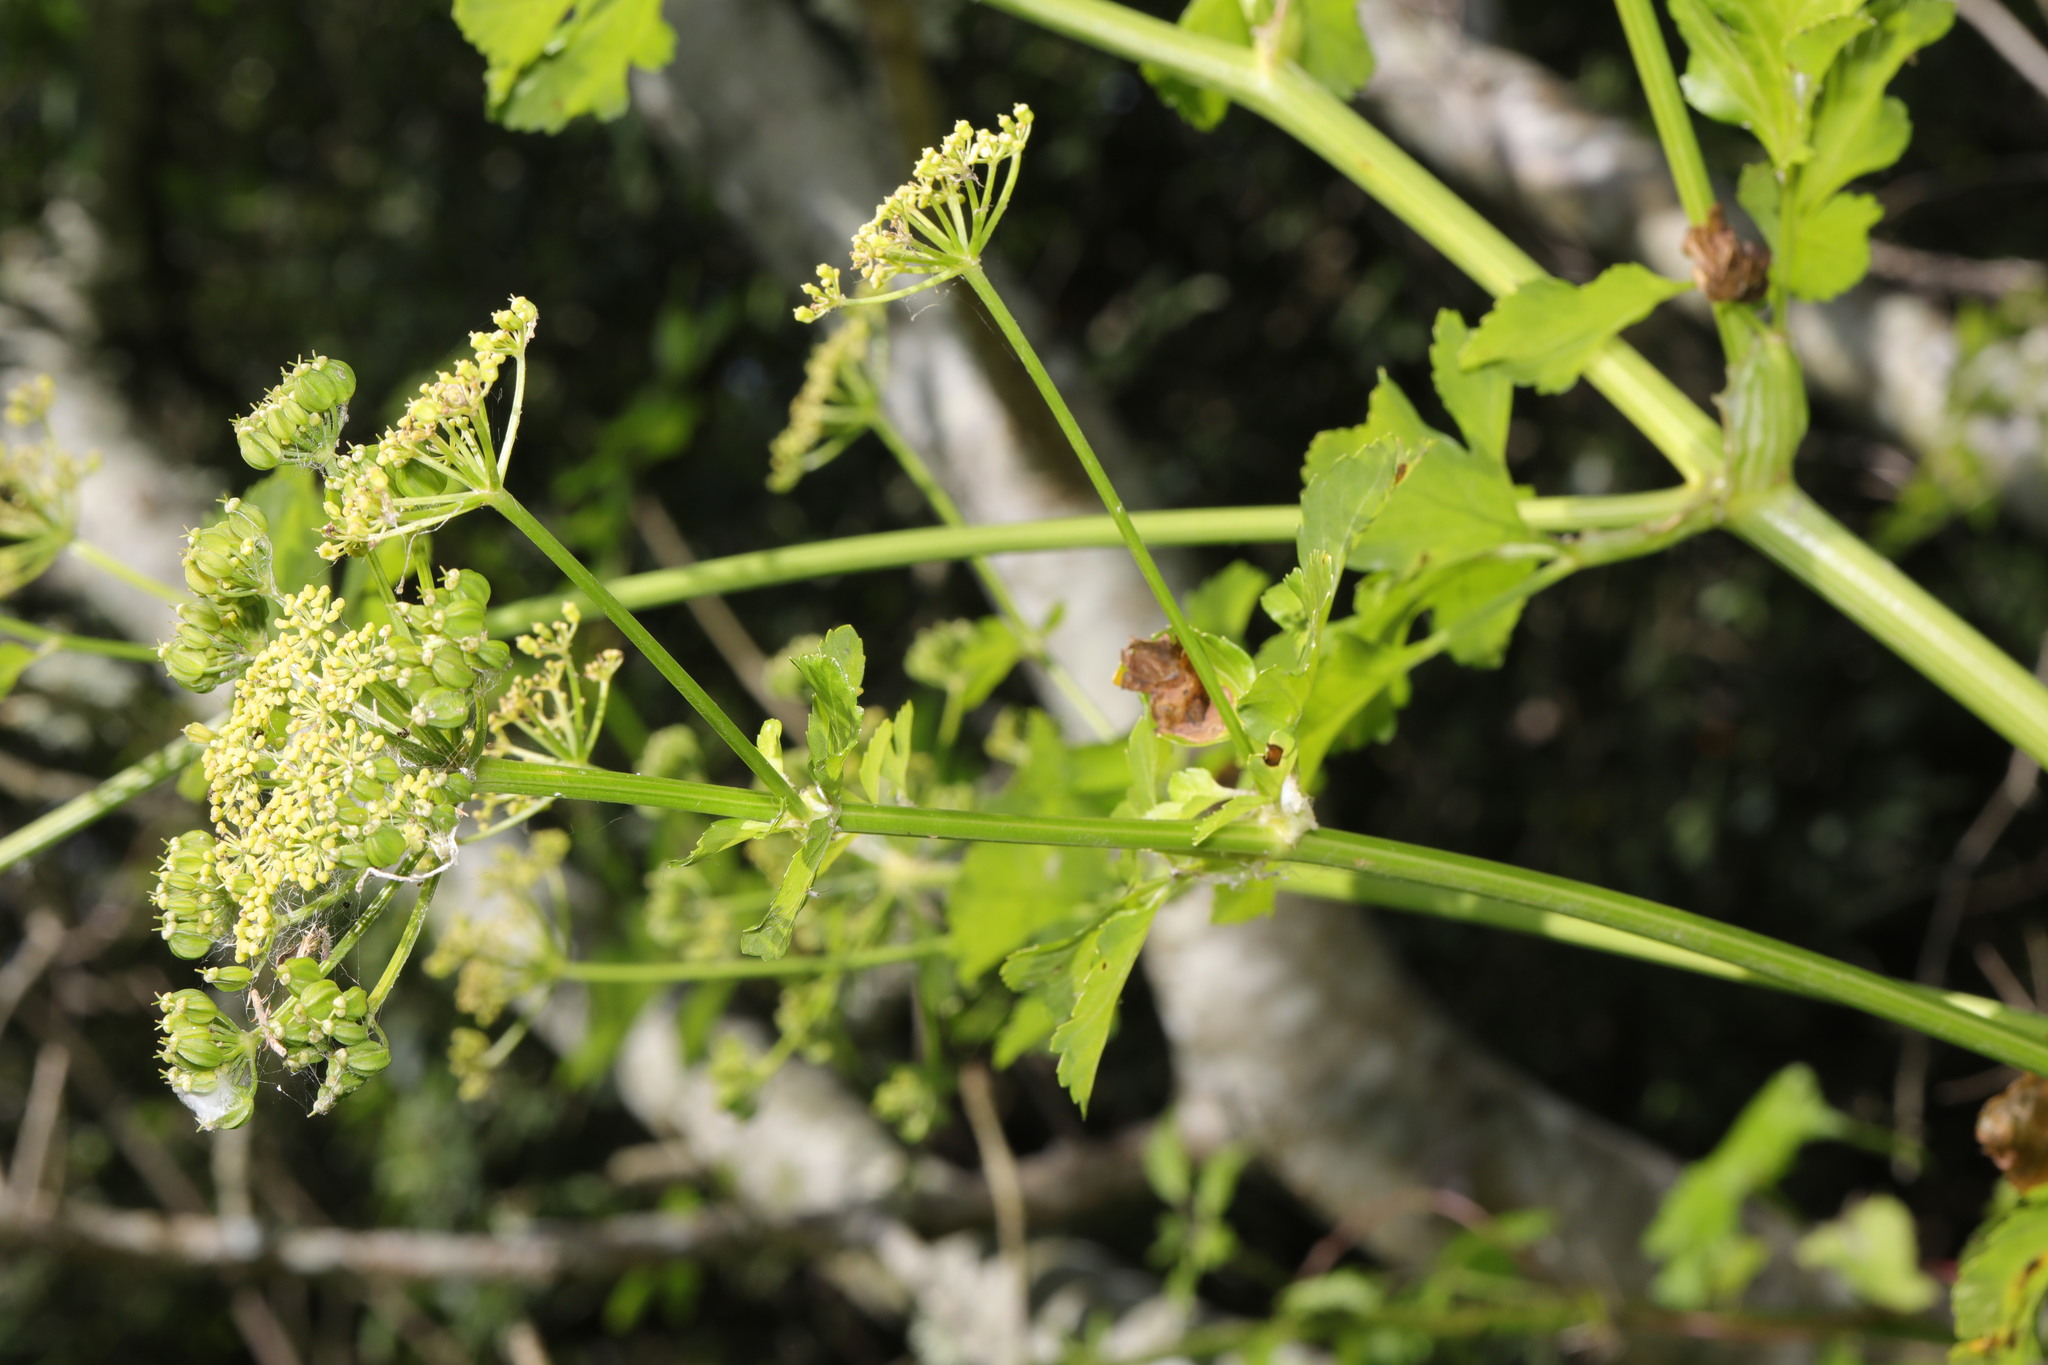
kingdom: Plantae
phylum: Tracheophyta
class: Magnoliopsida
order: Apiales
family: Apiaceae
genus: Smyrnium
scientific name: Smyrnium olusatrum
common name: Alexanders
